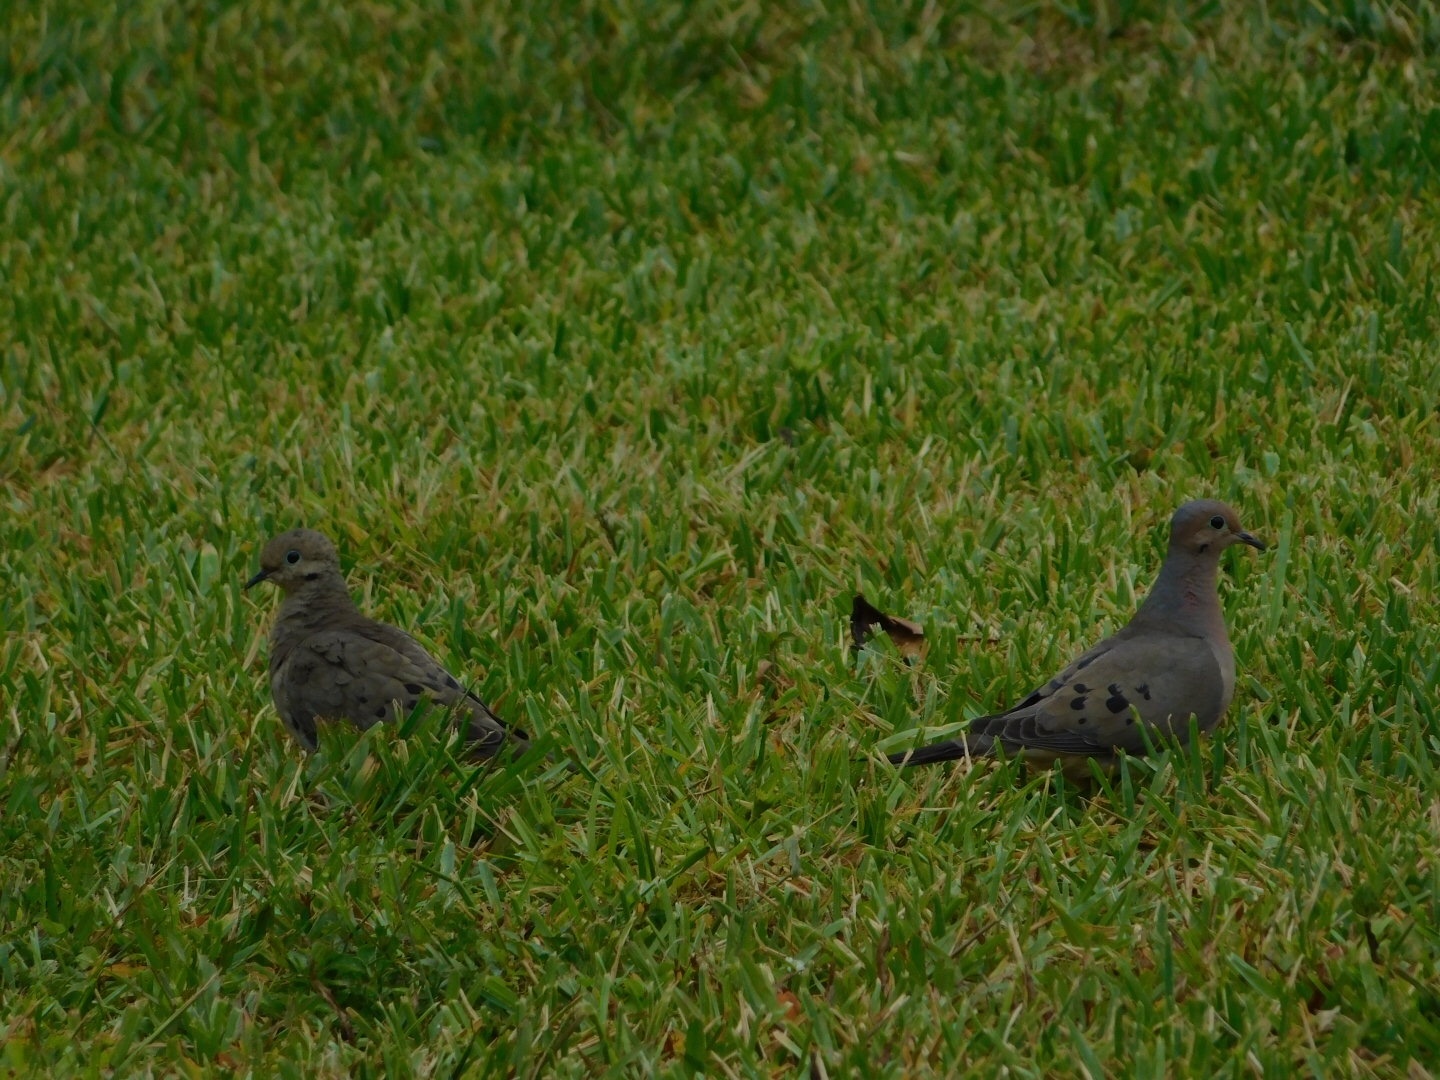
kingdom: Animalia
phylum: Chordata
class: Aves
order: Columbiformes
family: Columbidae
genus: Zenaida
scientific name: Zenaida macroura
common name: Mourning dove
